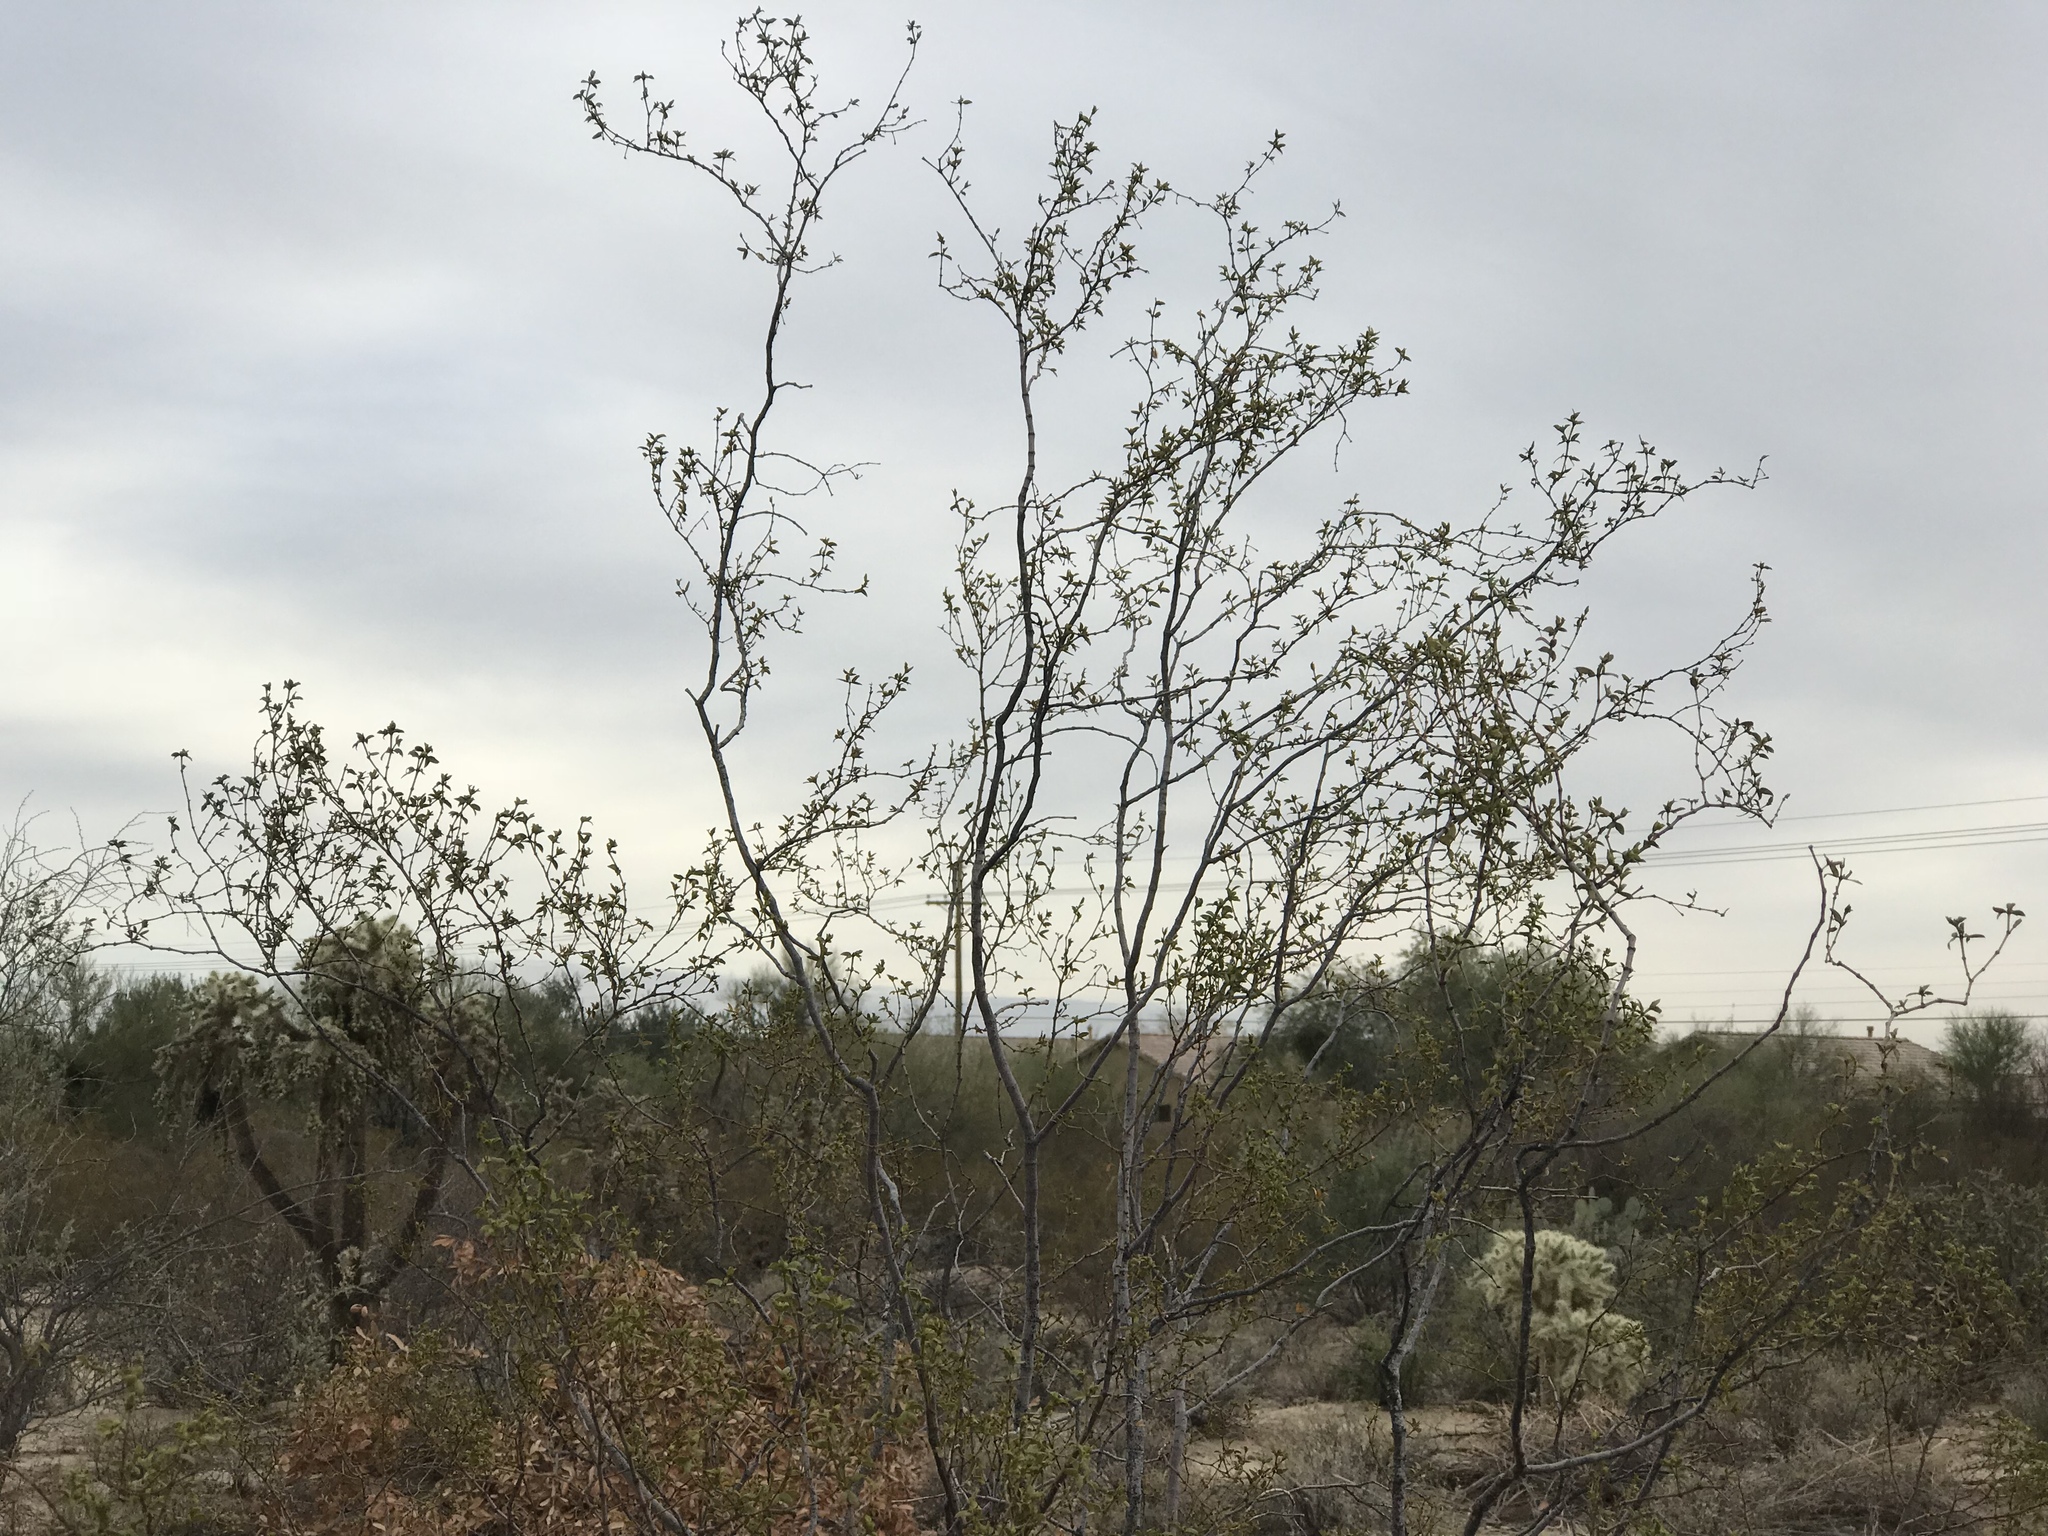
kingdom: Plantae
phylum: Tracheophyta
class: Magnoliopsida
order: Zygophyllales
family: Zygophyllaceae
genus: Larrea
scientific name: Larrea tridentata
